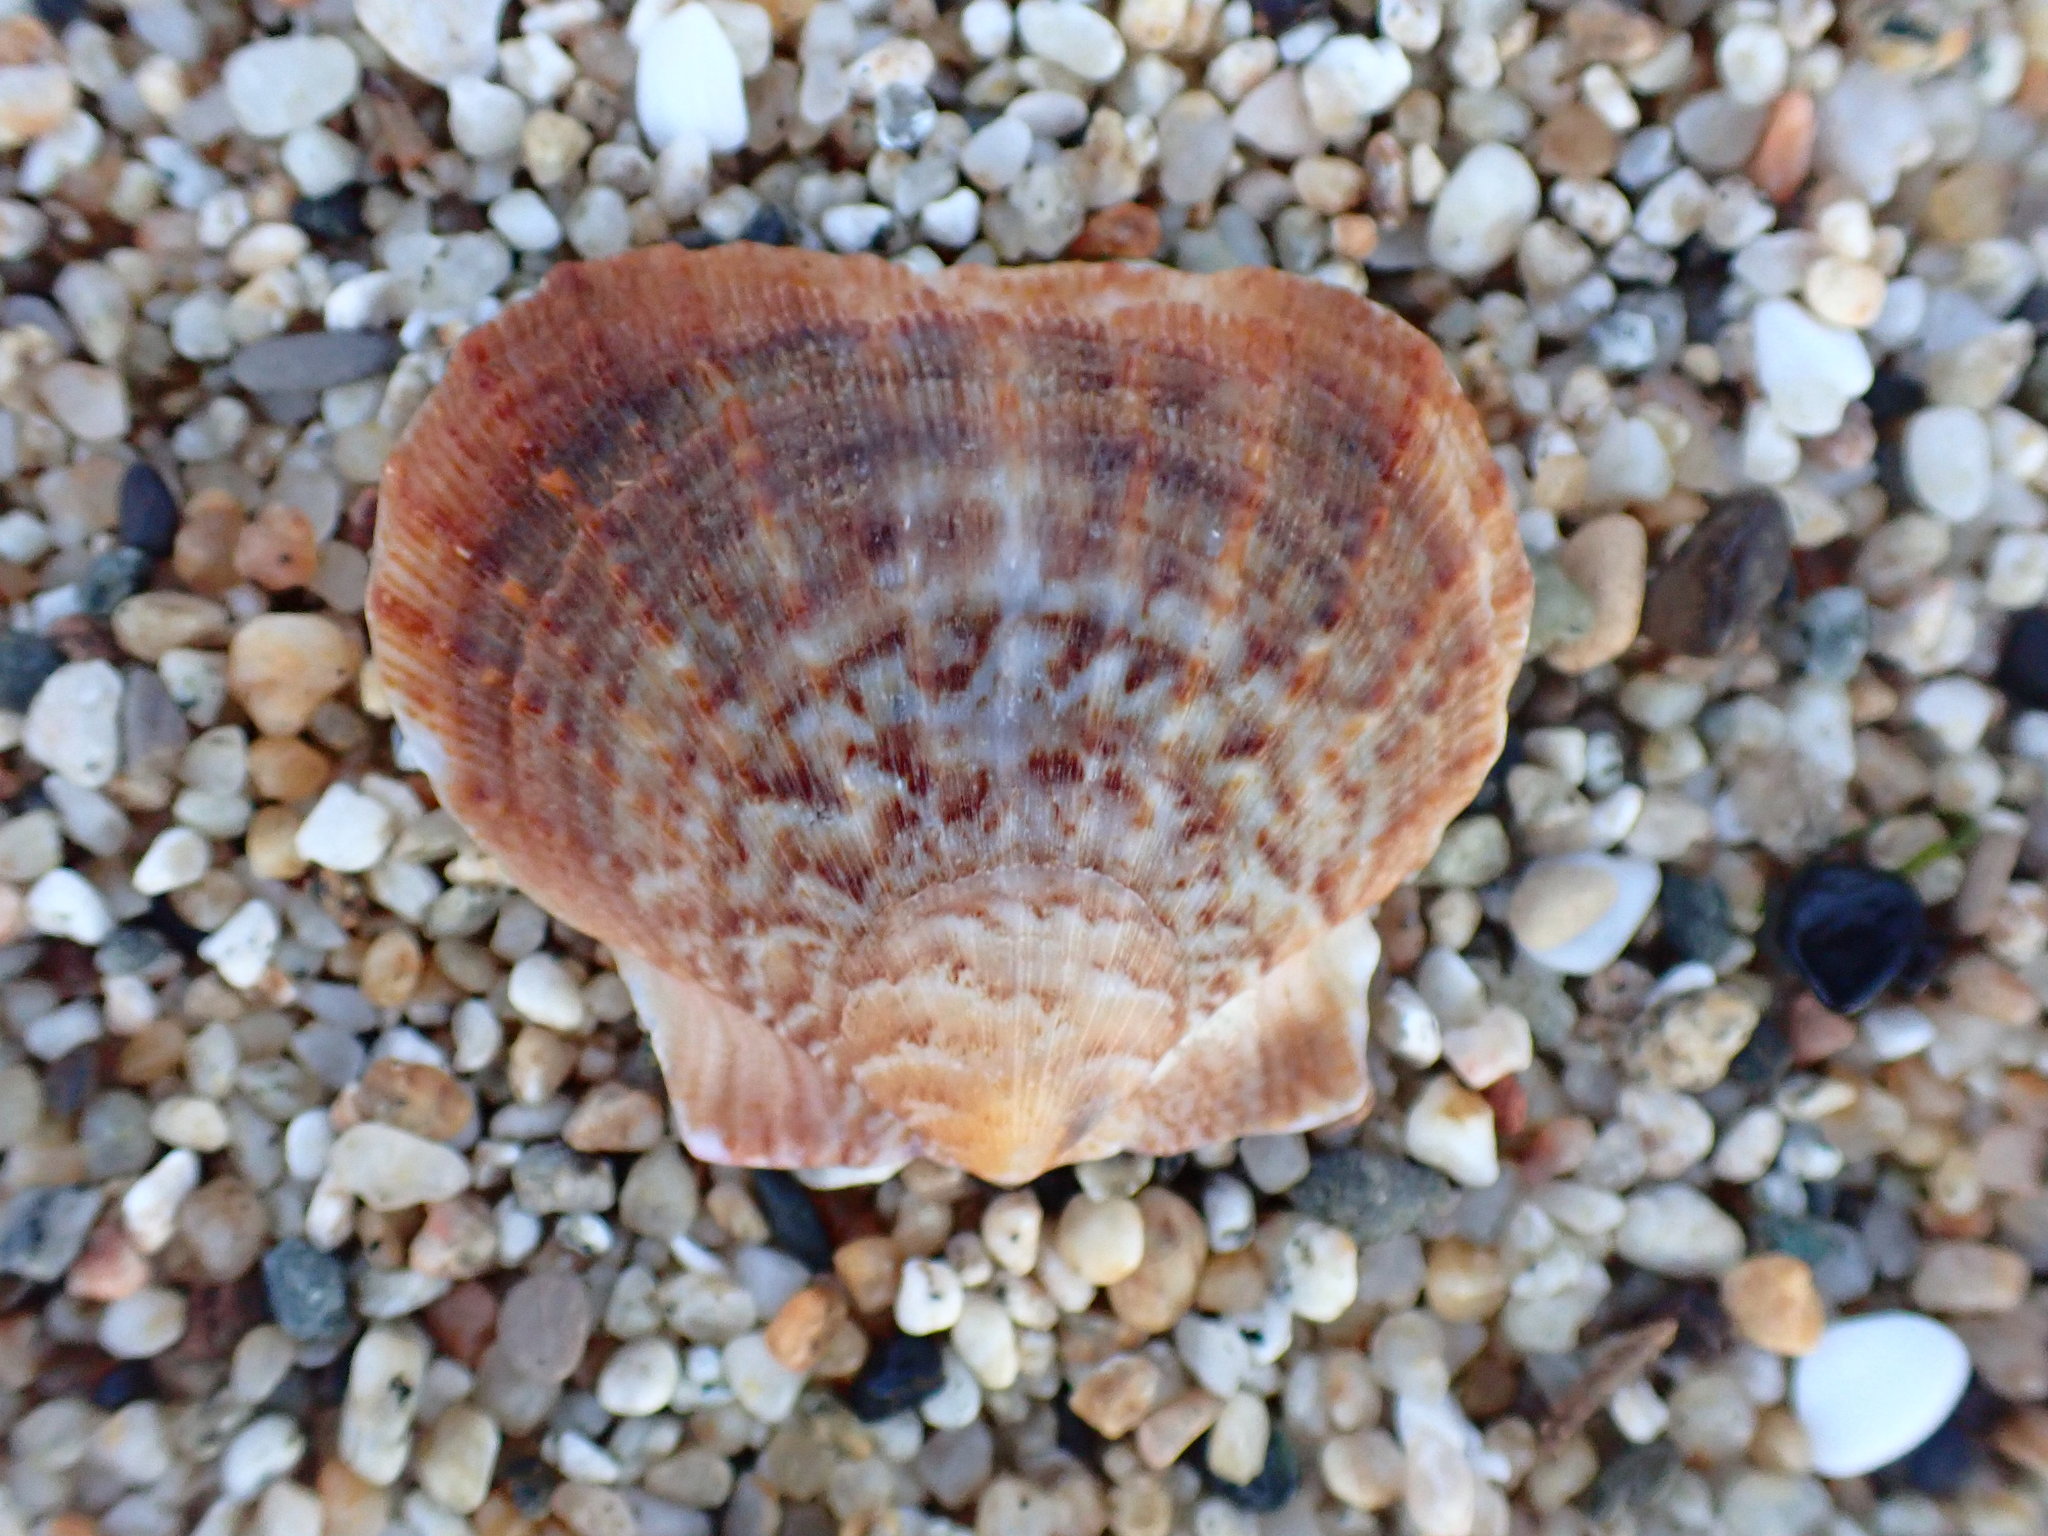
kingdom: Animalia
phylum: Mollusca
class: Bivalvia
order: Pectinida
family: Pectinidae
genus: Crassadoma
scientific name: Crassadoma gigantea
